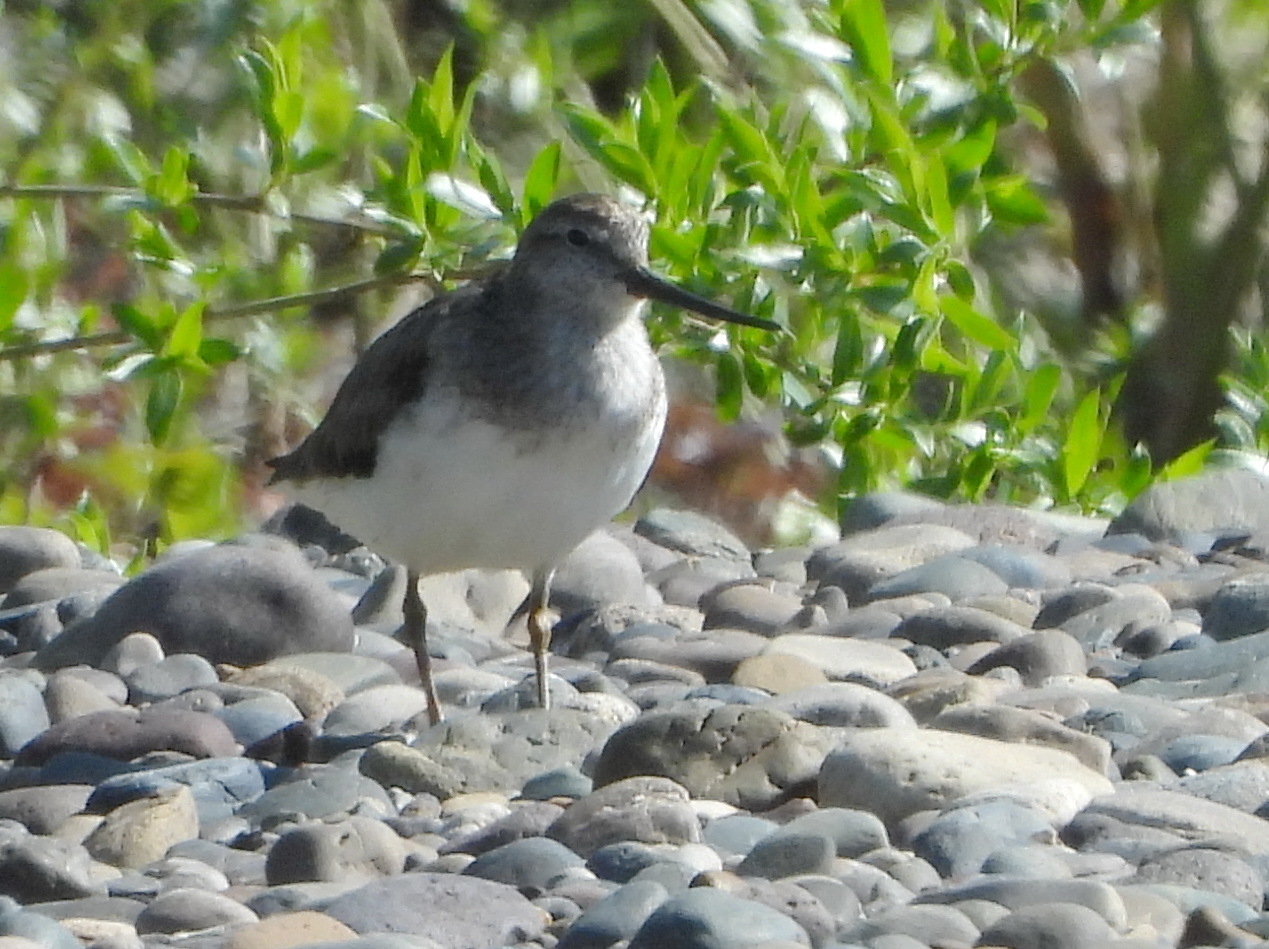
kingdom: Animalia
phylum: Chordata
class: Aves
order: Charadriiformes
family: Scolopacidae
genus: Xenus
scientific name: Xenus cinereus
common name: Terek sandpiper
